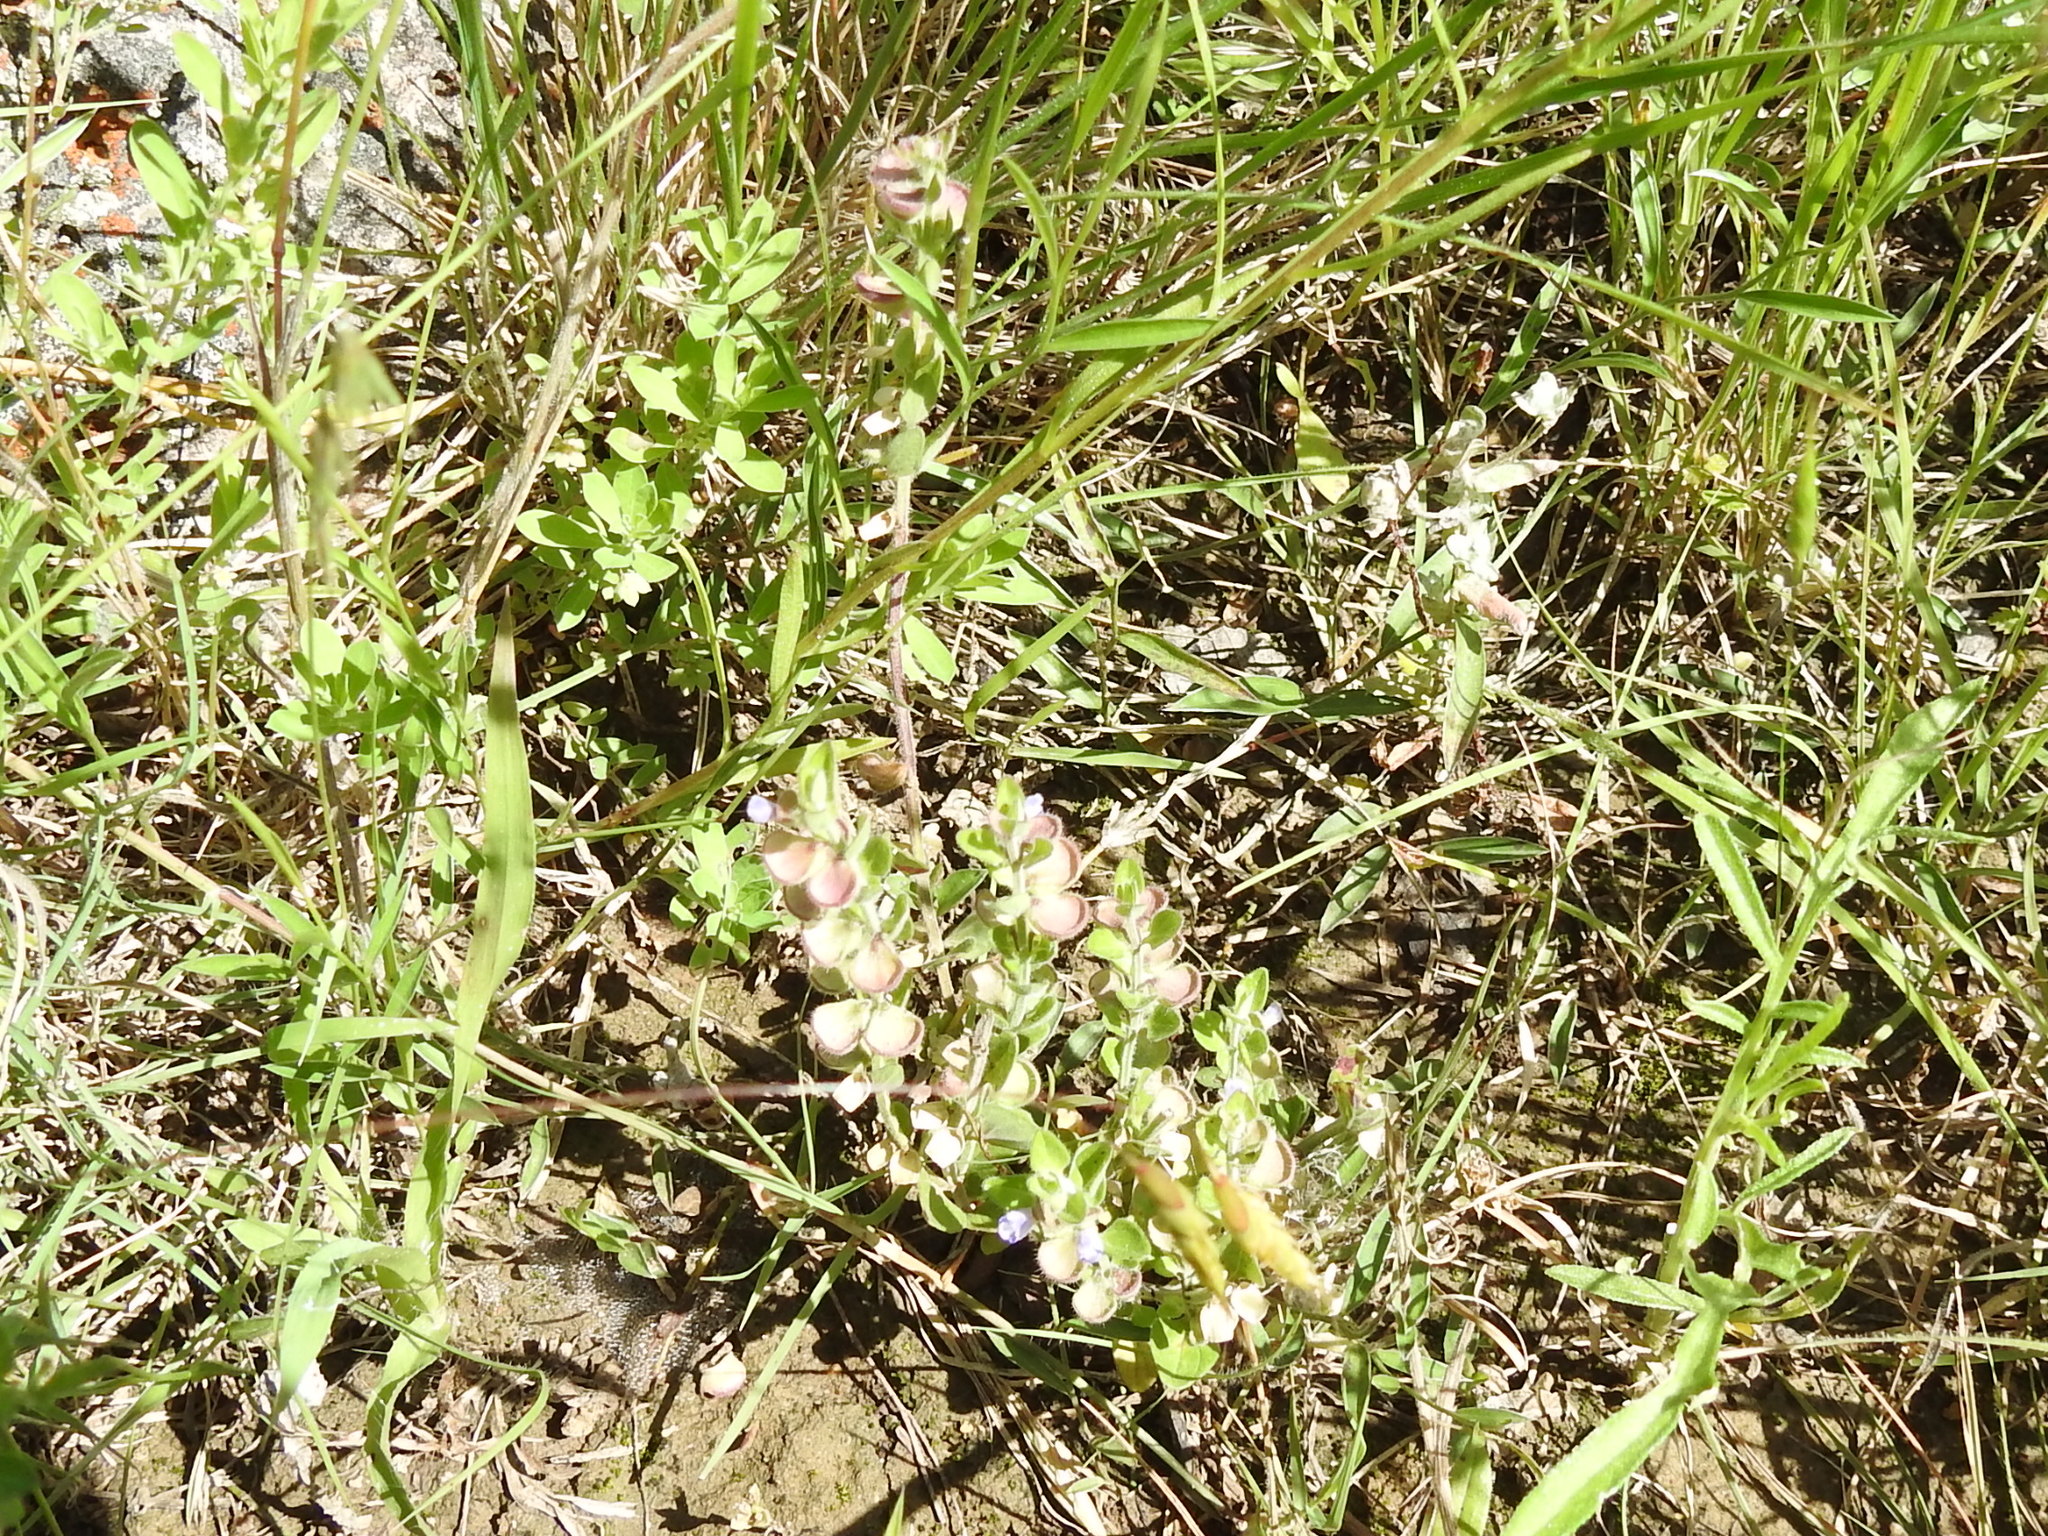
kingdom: Plantae
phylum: Tracheophyta
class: Magnoliopsida
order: Lamiales
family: Lamiaceae
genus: Scutellaria
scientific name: Scutellaria drummondii
